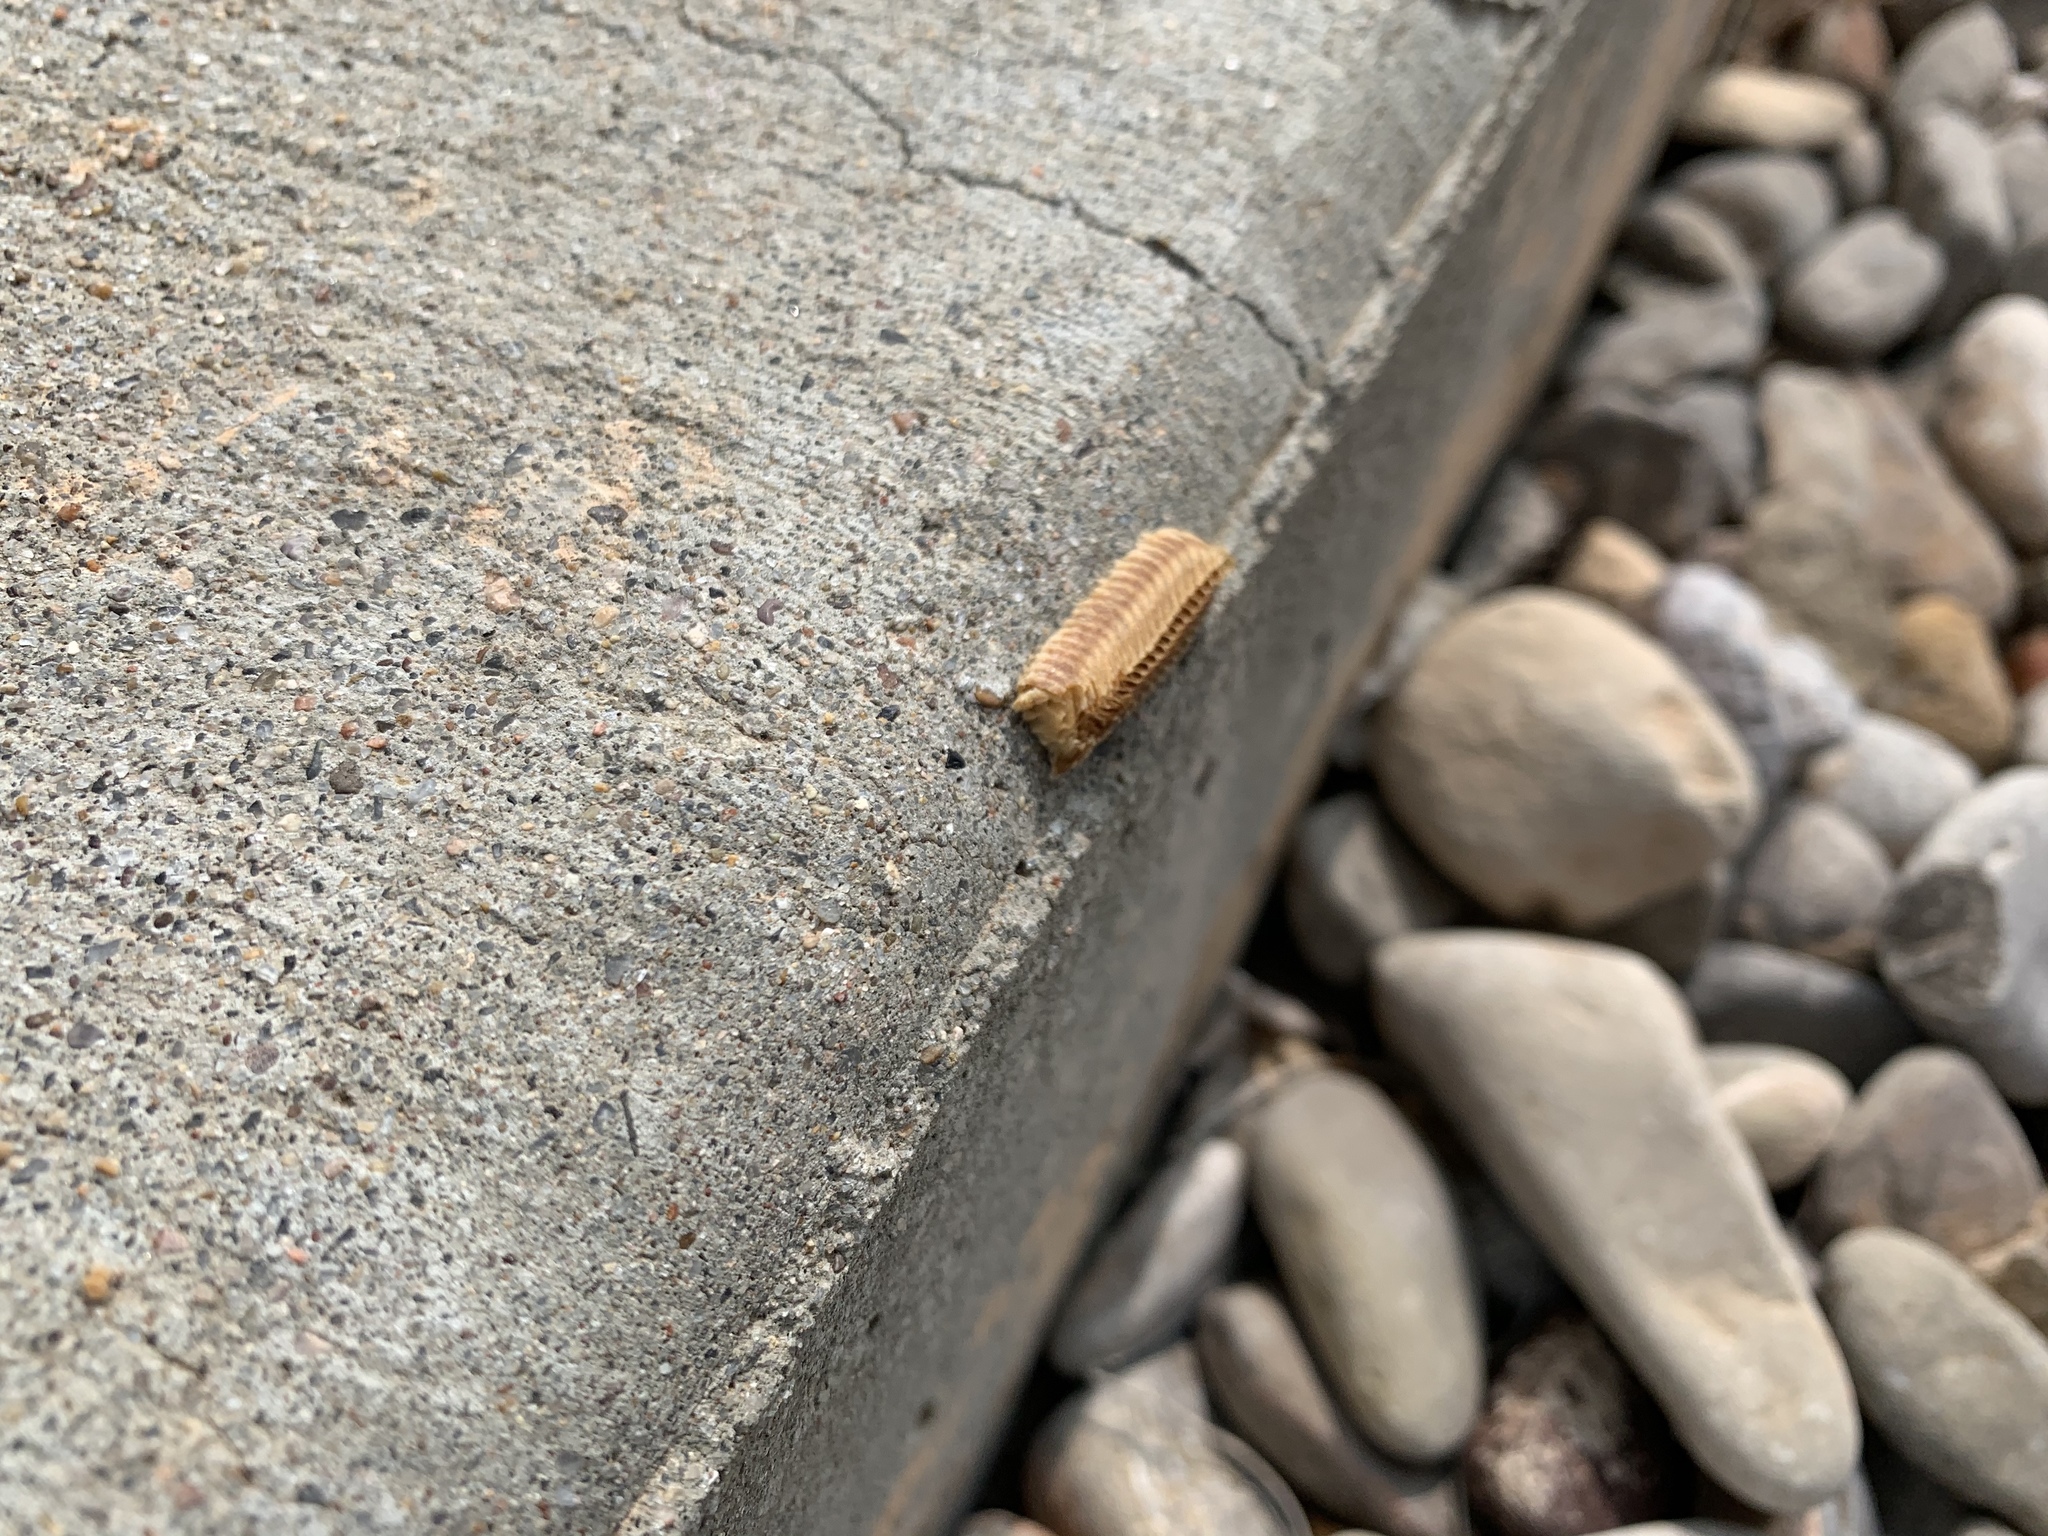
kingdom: Animalia
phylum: Arthropoda
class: Insecta
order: Mantodea
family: Eremiaphilidae
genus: Iris
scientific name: Iris oratoria
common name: Mediterranean mantis
